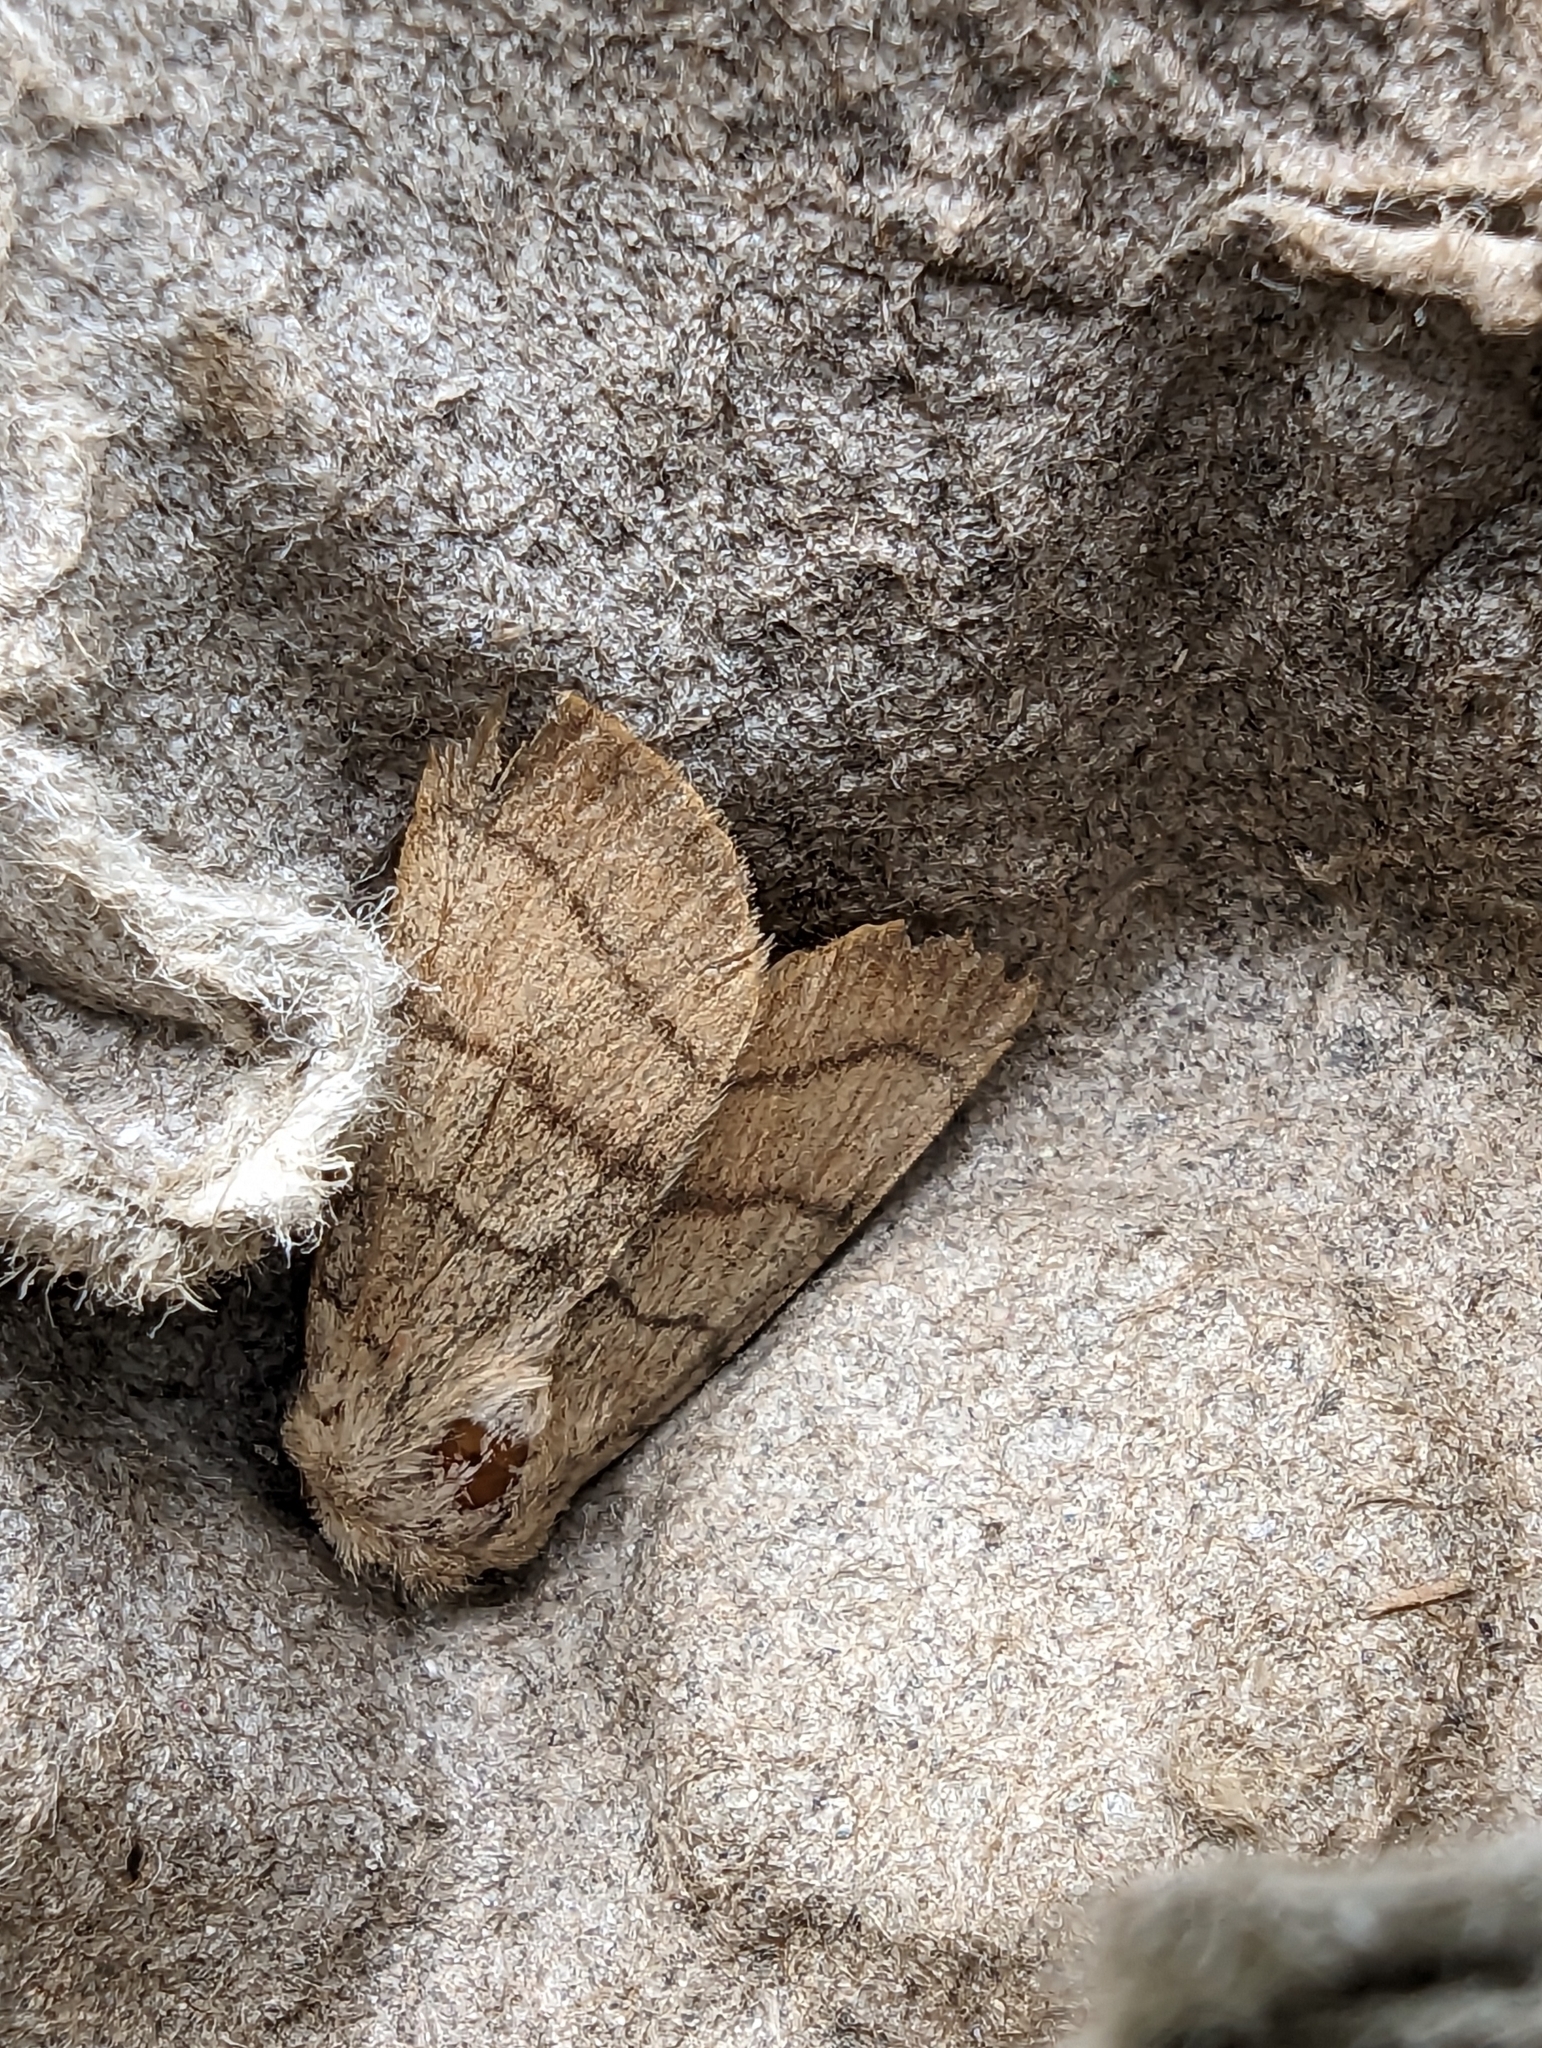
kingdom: Animalia
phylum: Arthropoda
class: Insecta
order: Lepidoptera
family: Noctuidae
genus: Charanyca
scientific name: Charanyca trigrammica
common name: Treble lines
